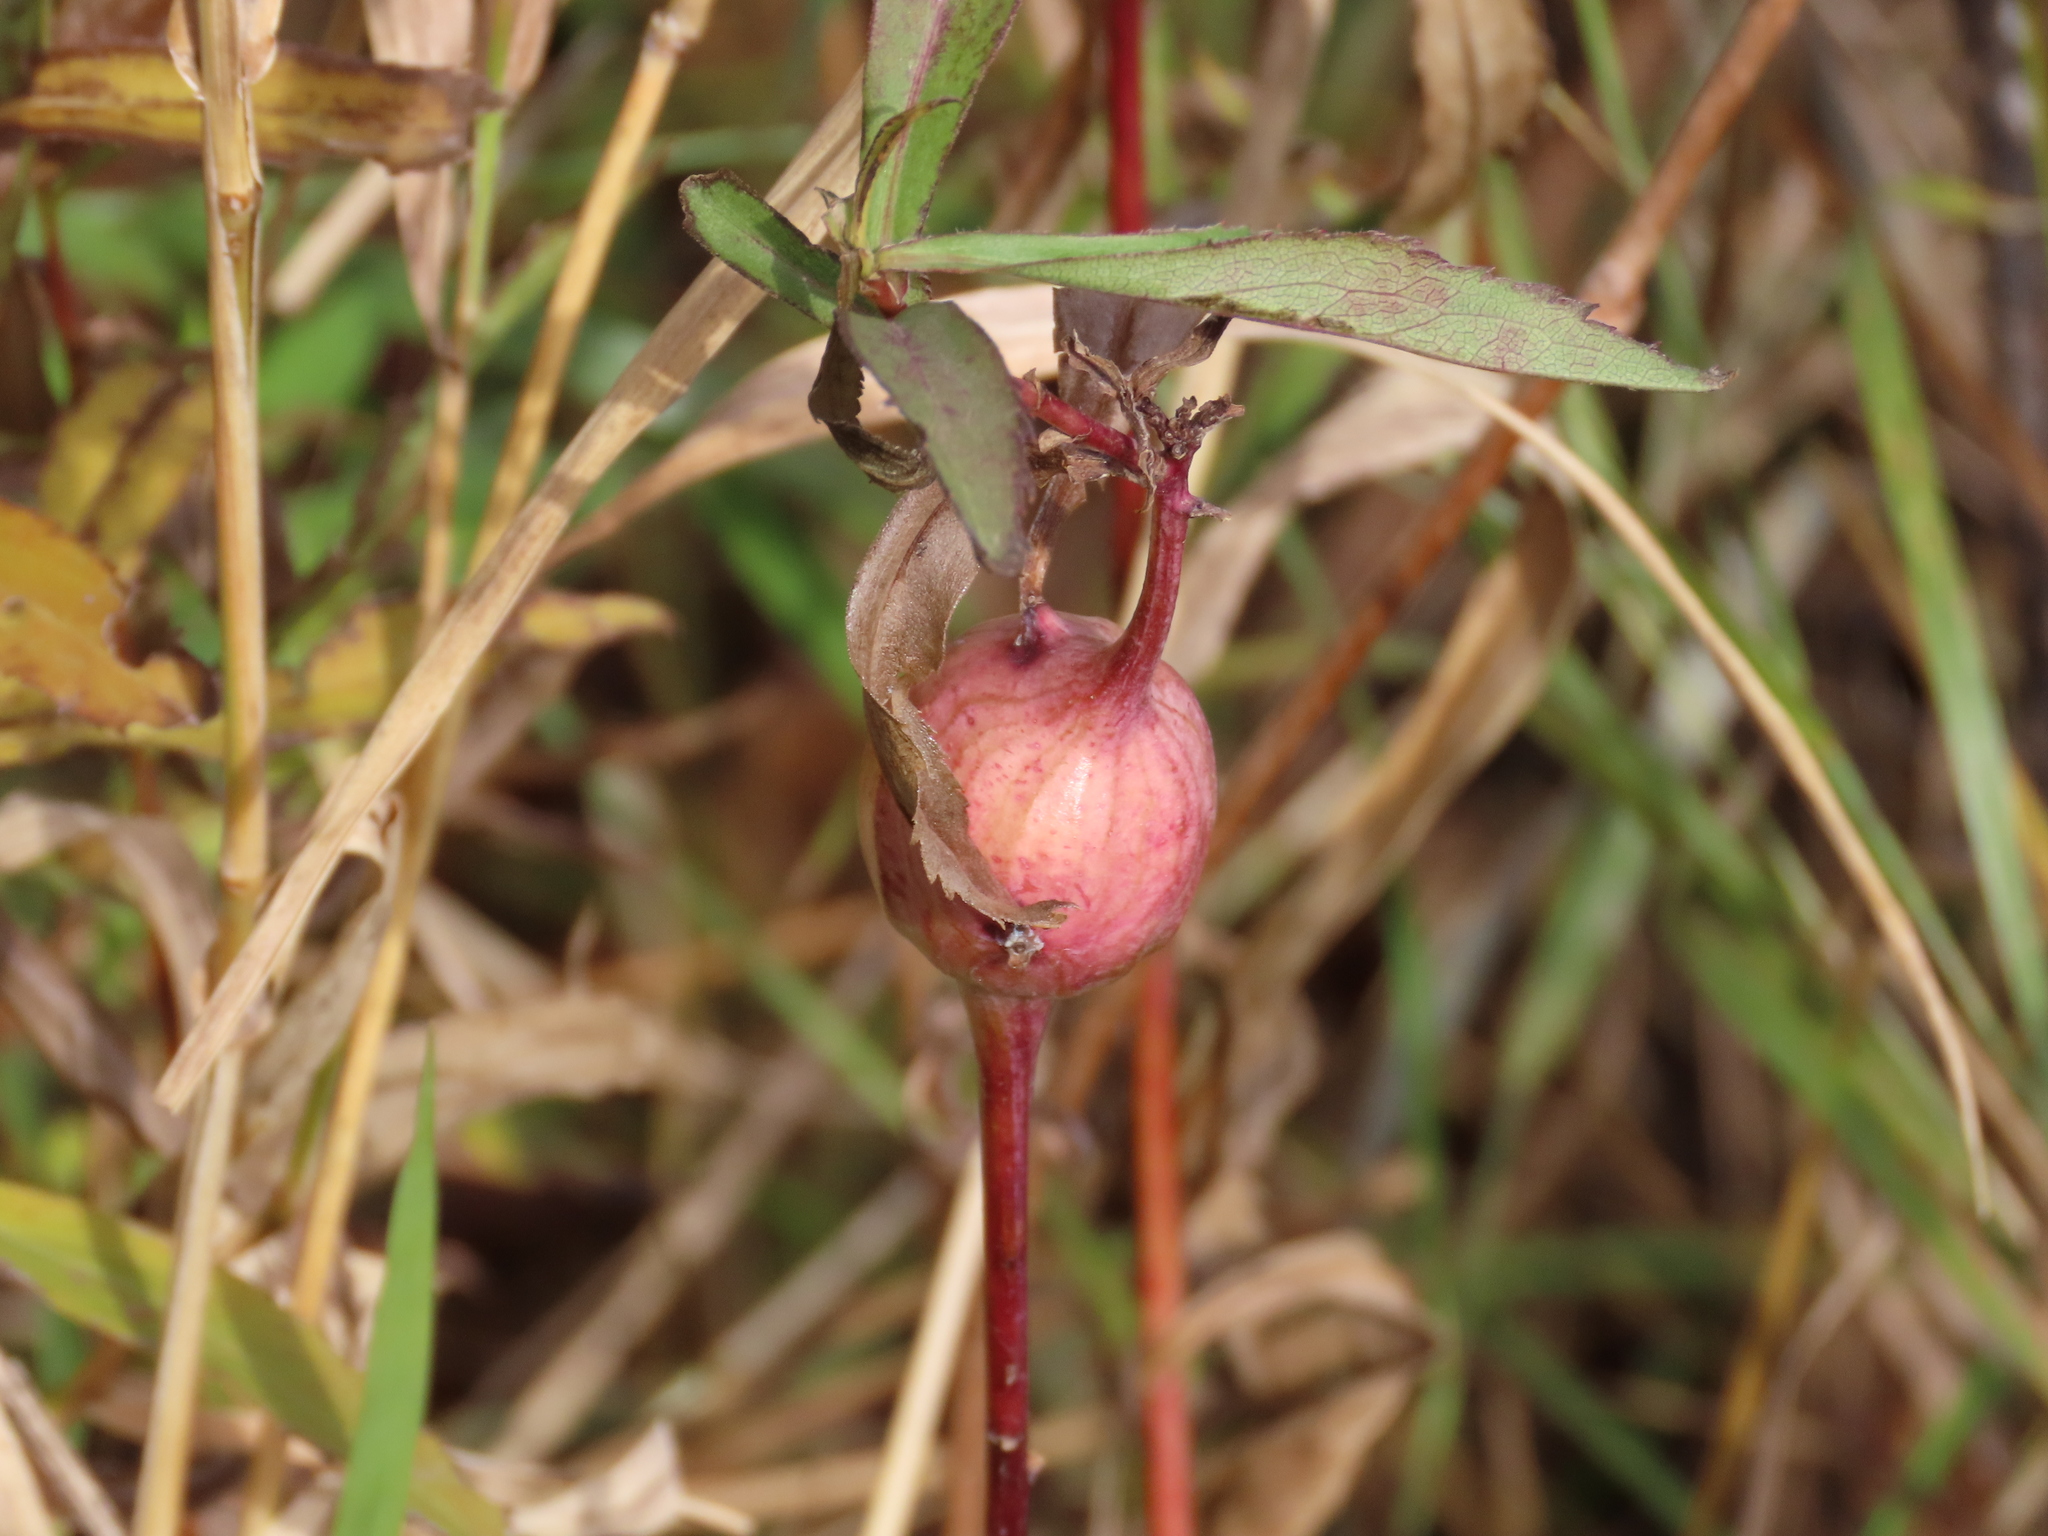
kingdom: Animalia
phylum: Arthropoda
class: Insecta
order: Diptera
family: Tephritidae
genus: Eurosta
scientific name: Eurosta solidaginis
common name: Goldenrod gall fly
